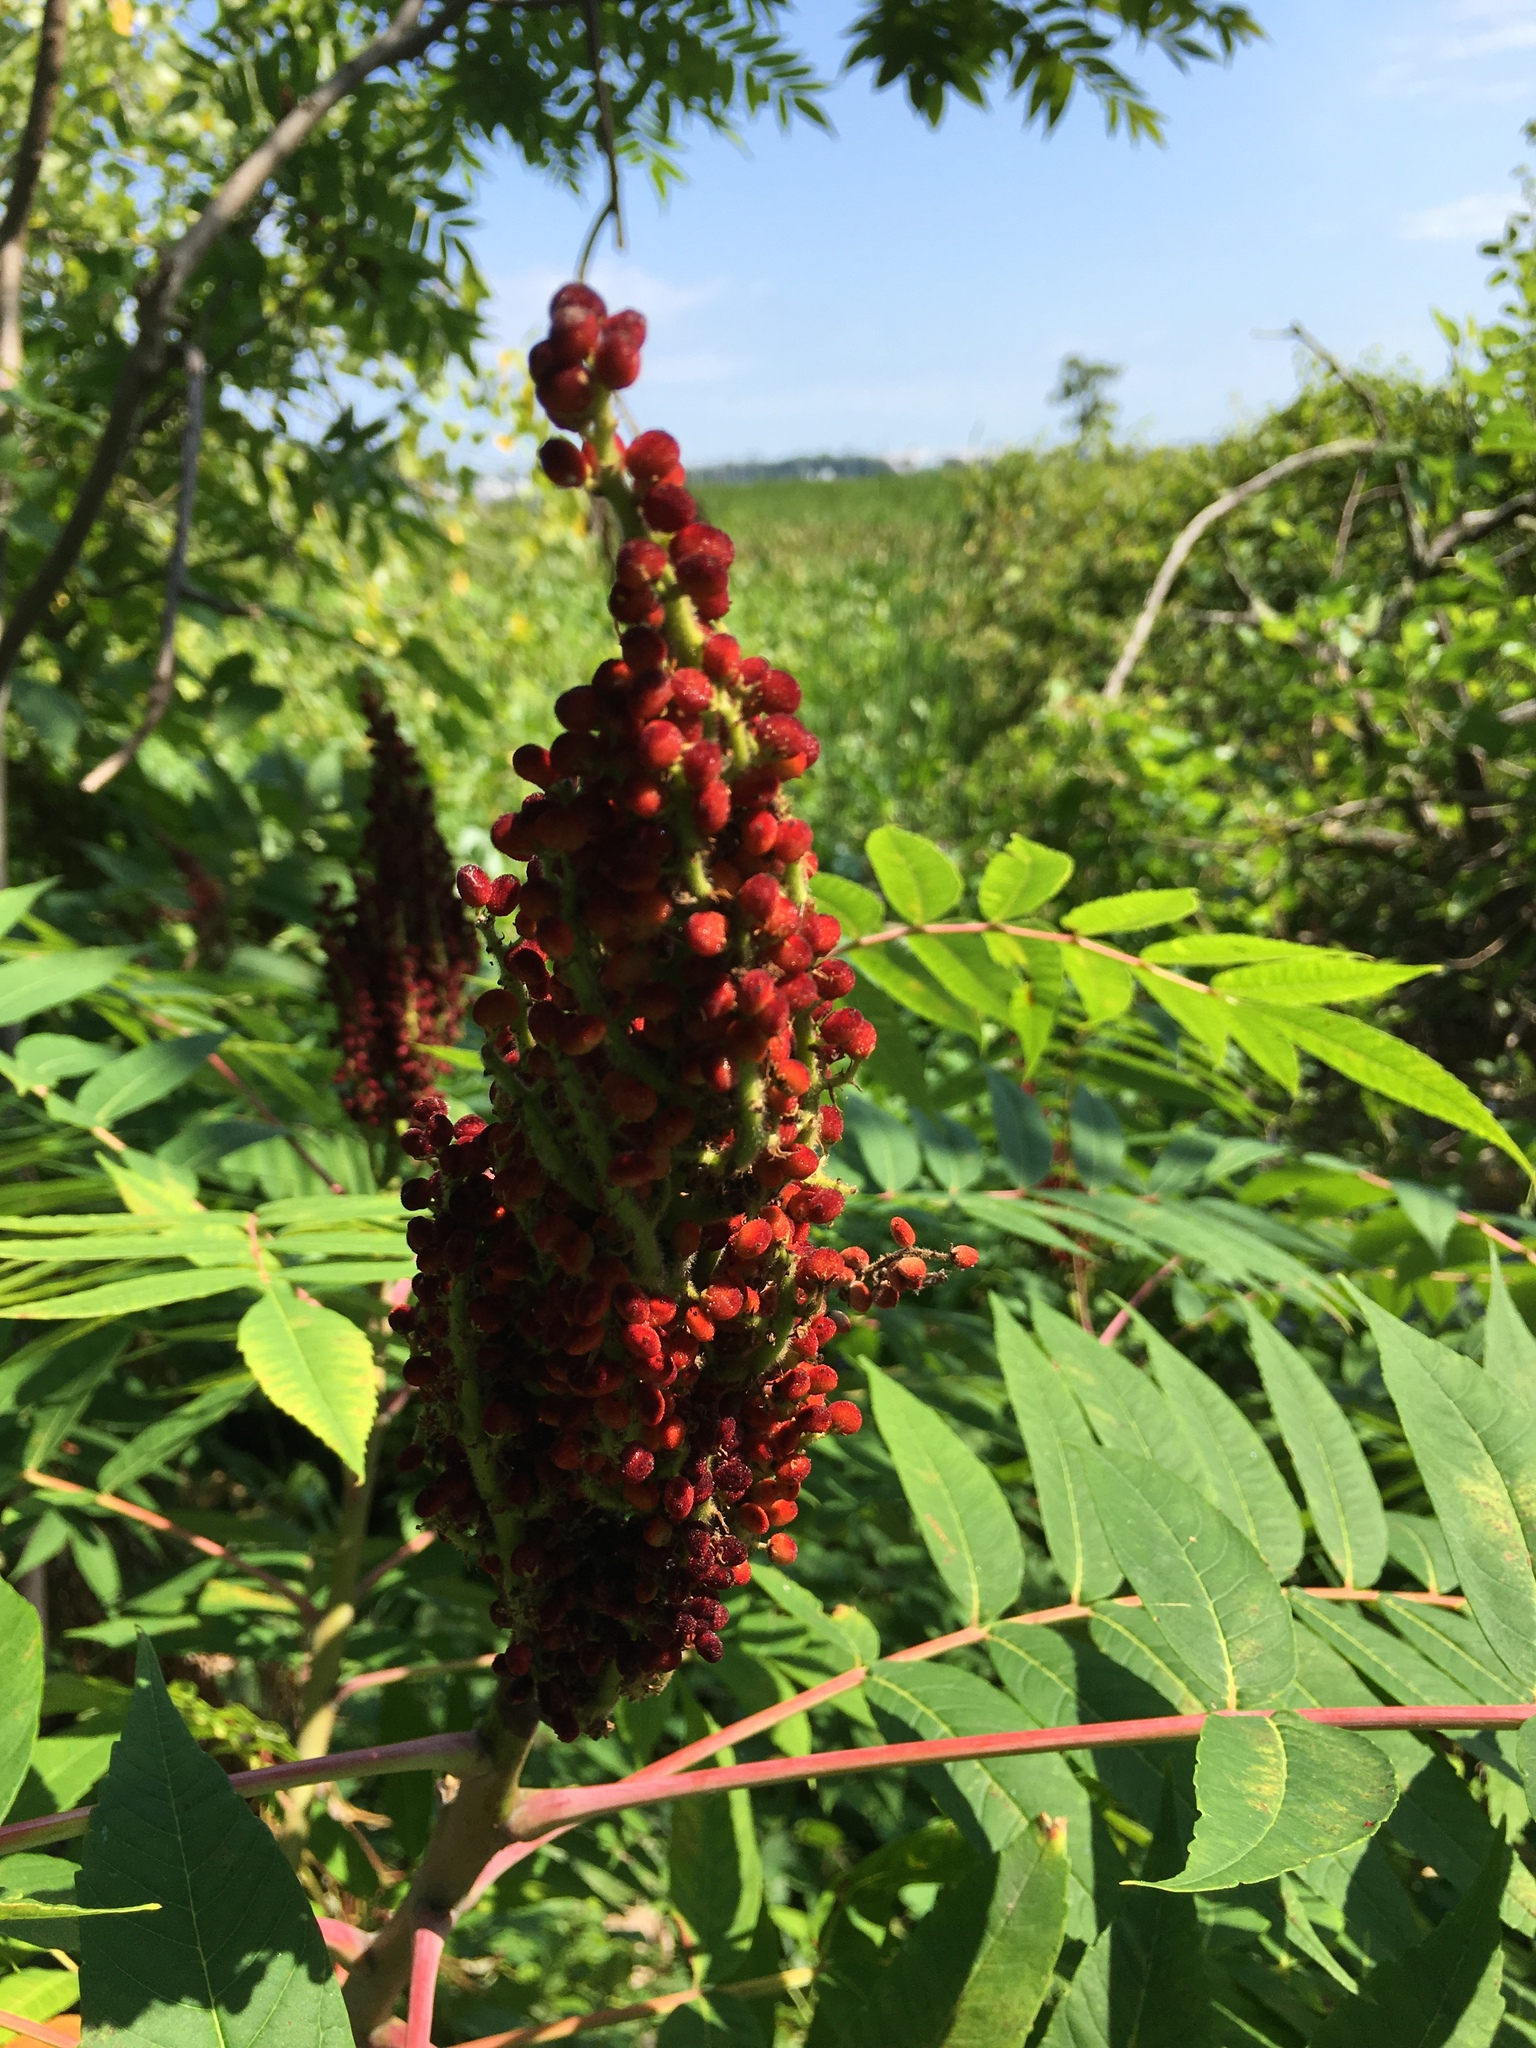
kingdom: Plantae
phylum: Tracheophyta
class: Magnoliopsida
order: Sapindales
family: Anacardiaceae
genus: Rhus
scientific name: Rhus glabra
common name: Scarlet sumac
